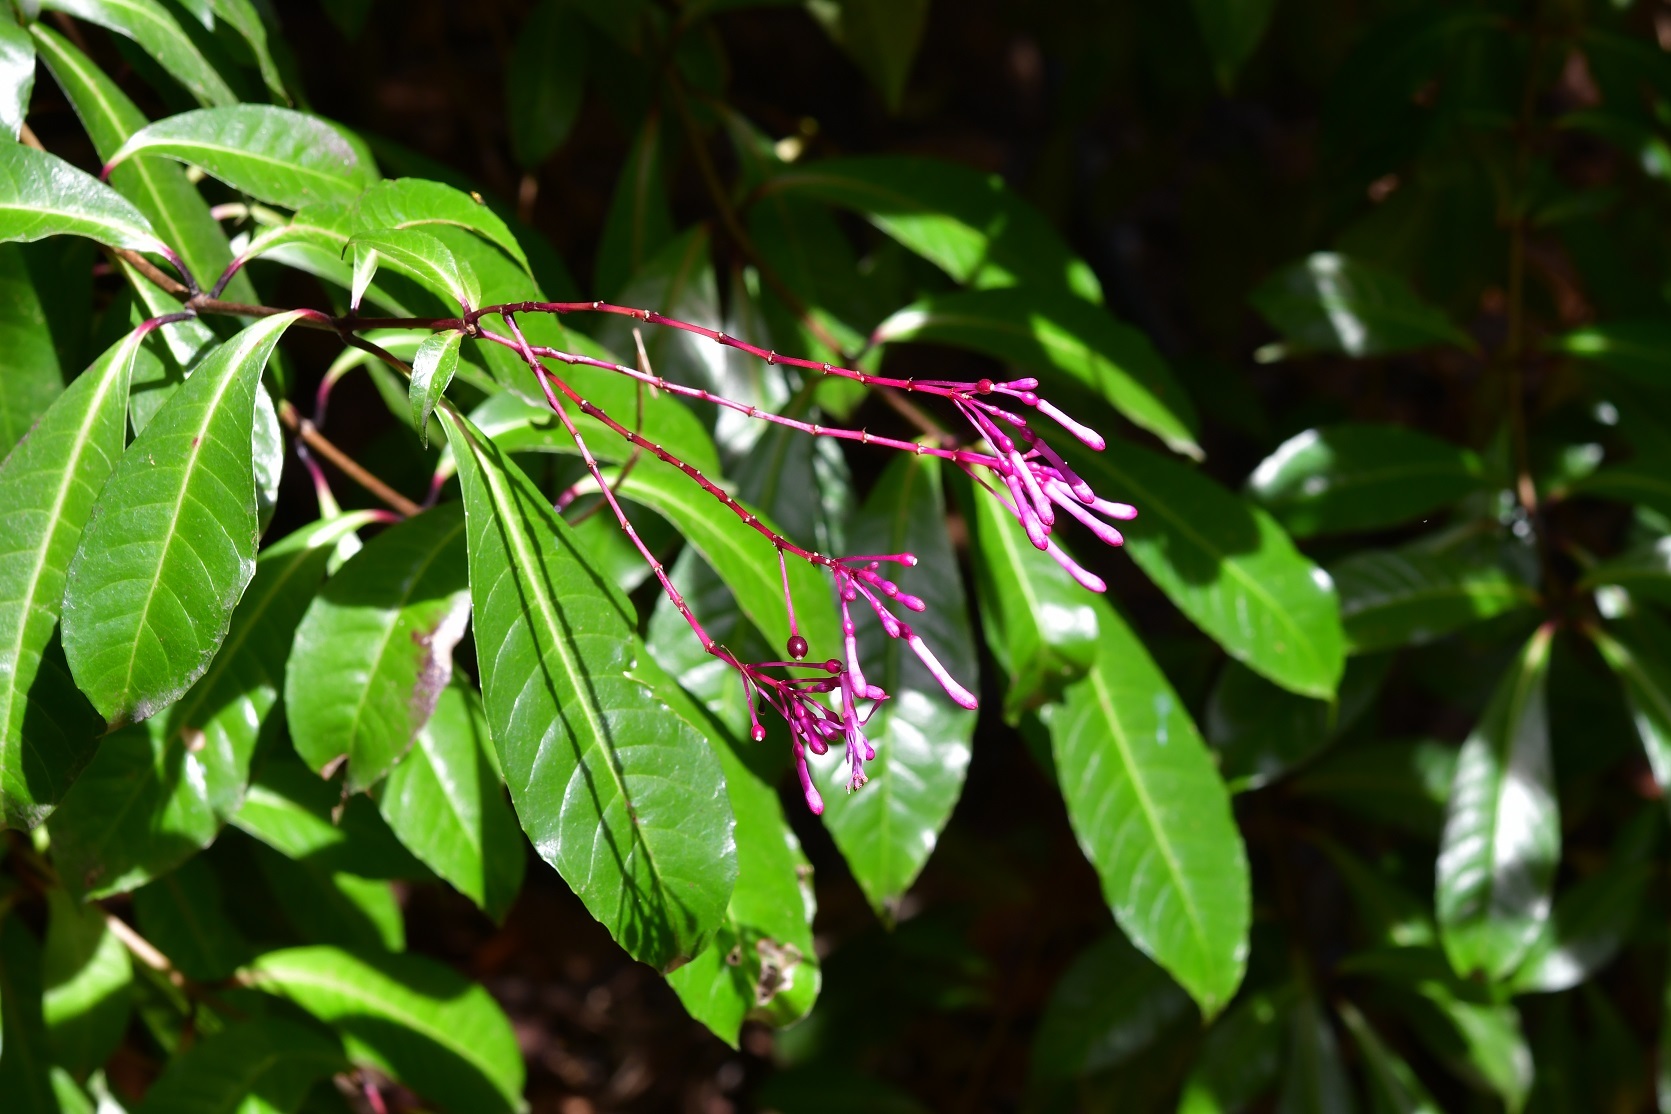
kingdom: Plantae
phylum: Tracheophyta
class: Magnoliopsida
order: Myrtales
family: Onagraceae
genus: Fuchsia
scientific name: Fuchsia paniculata
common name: Shrubby fuchsia
